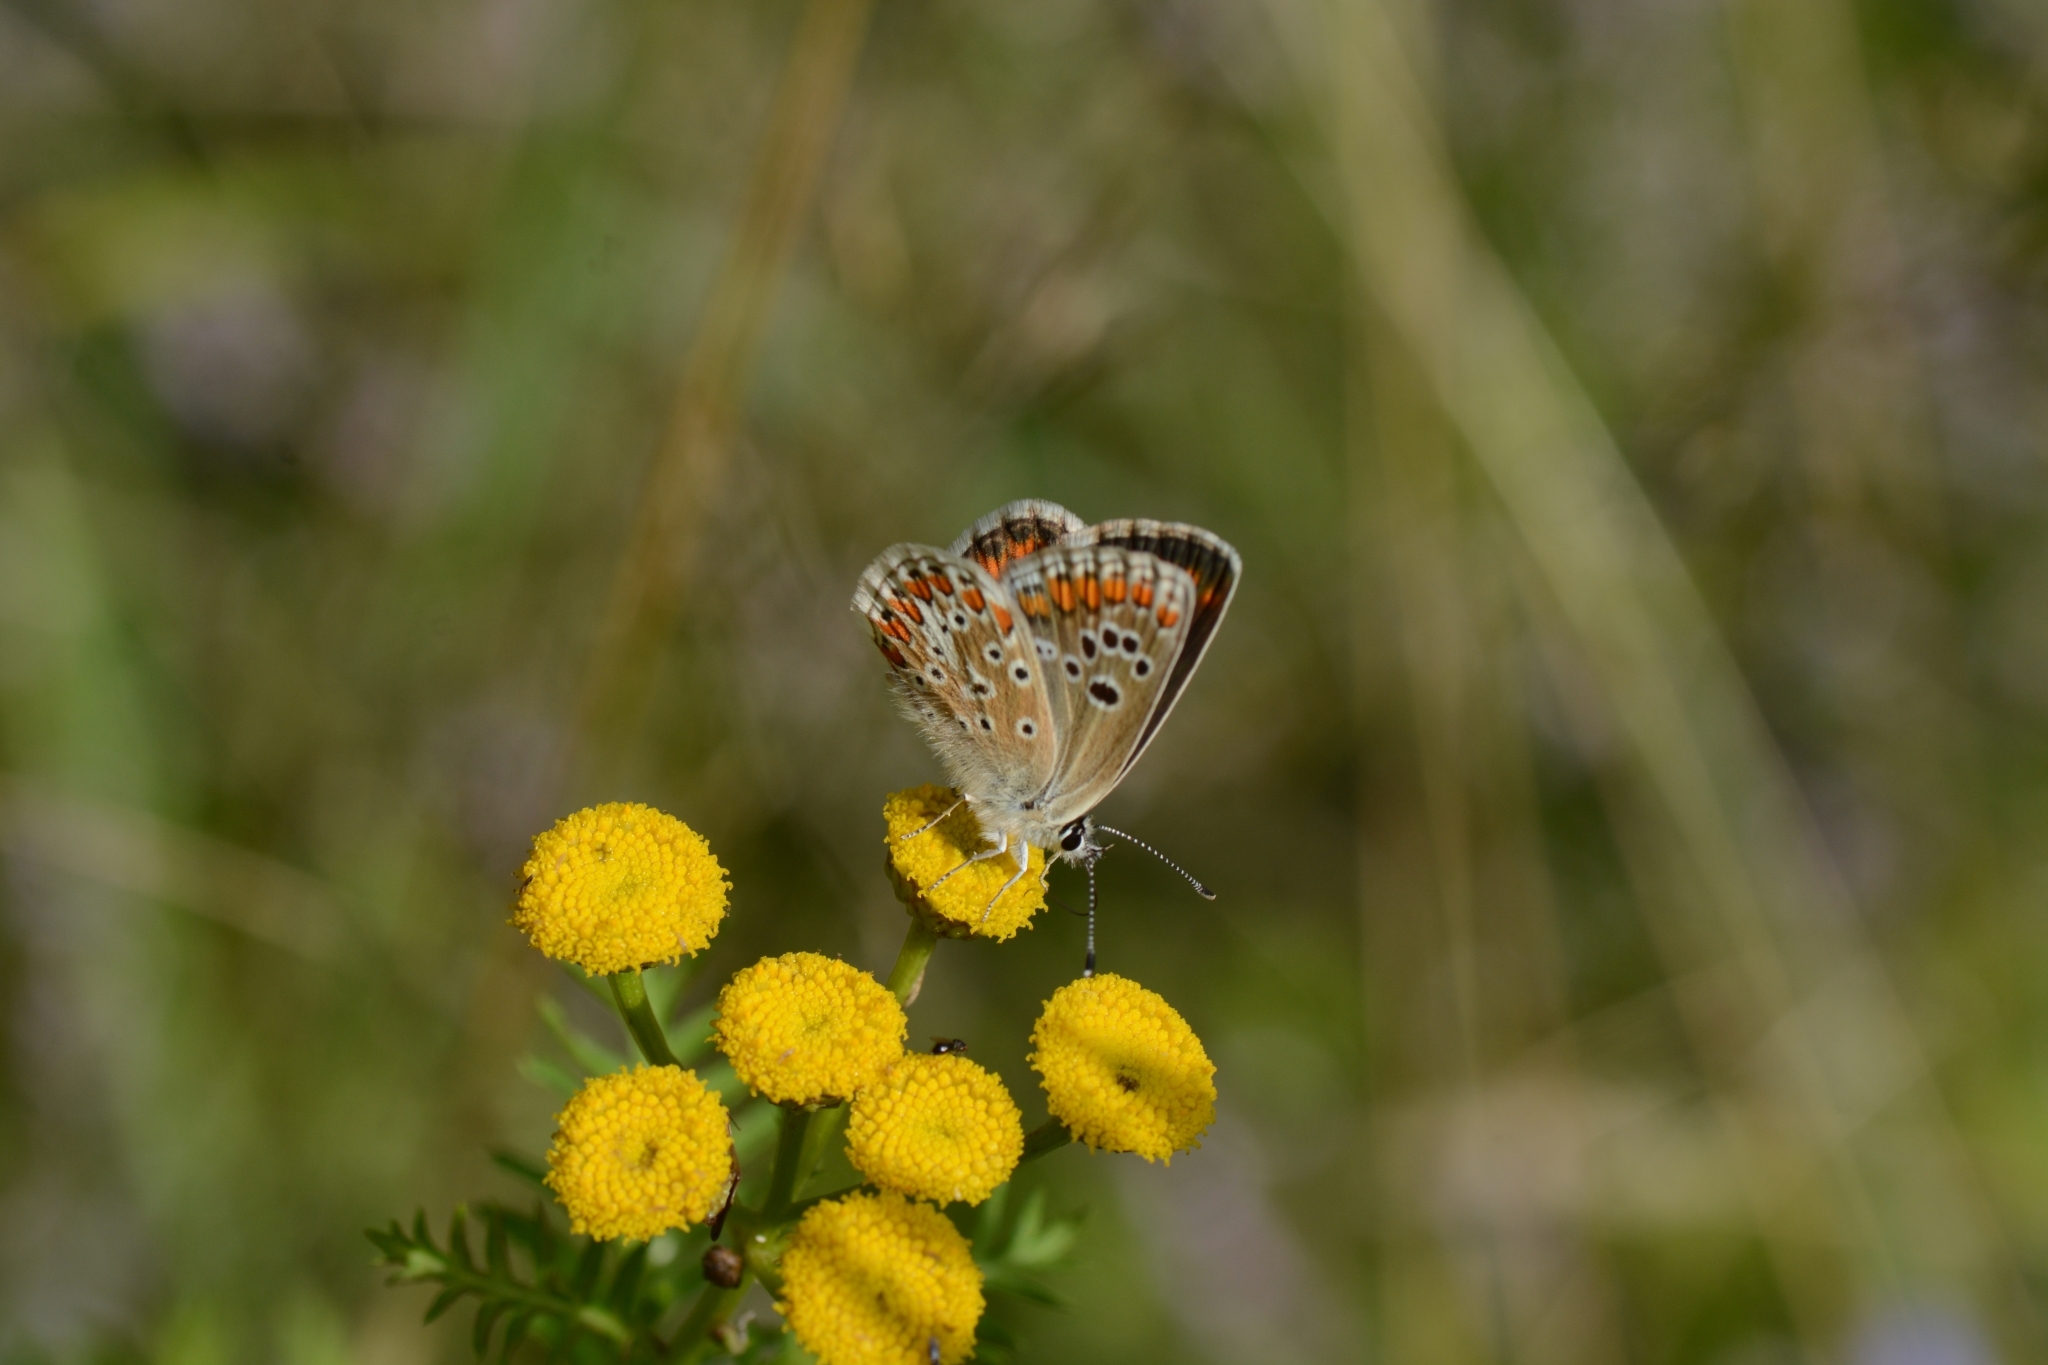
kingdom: Animalia
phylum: Arthropoda
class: Insecta
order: Lepidoptera
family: Lycaenidae
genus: Aricia
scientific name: Aricia agestis
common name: Brown argus
